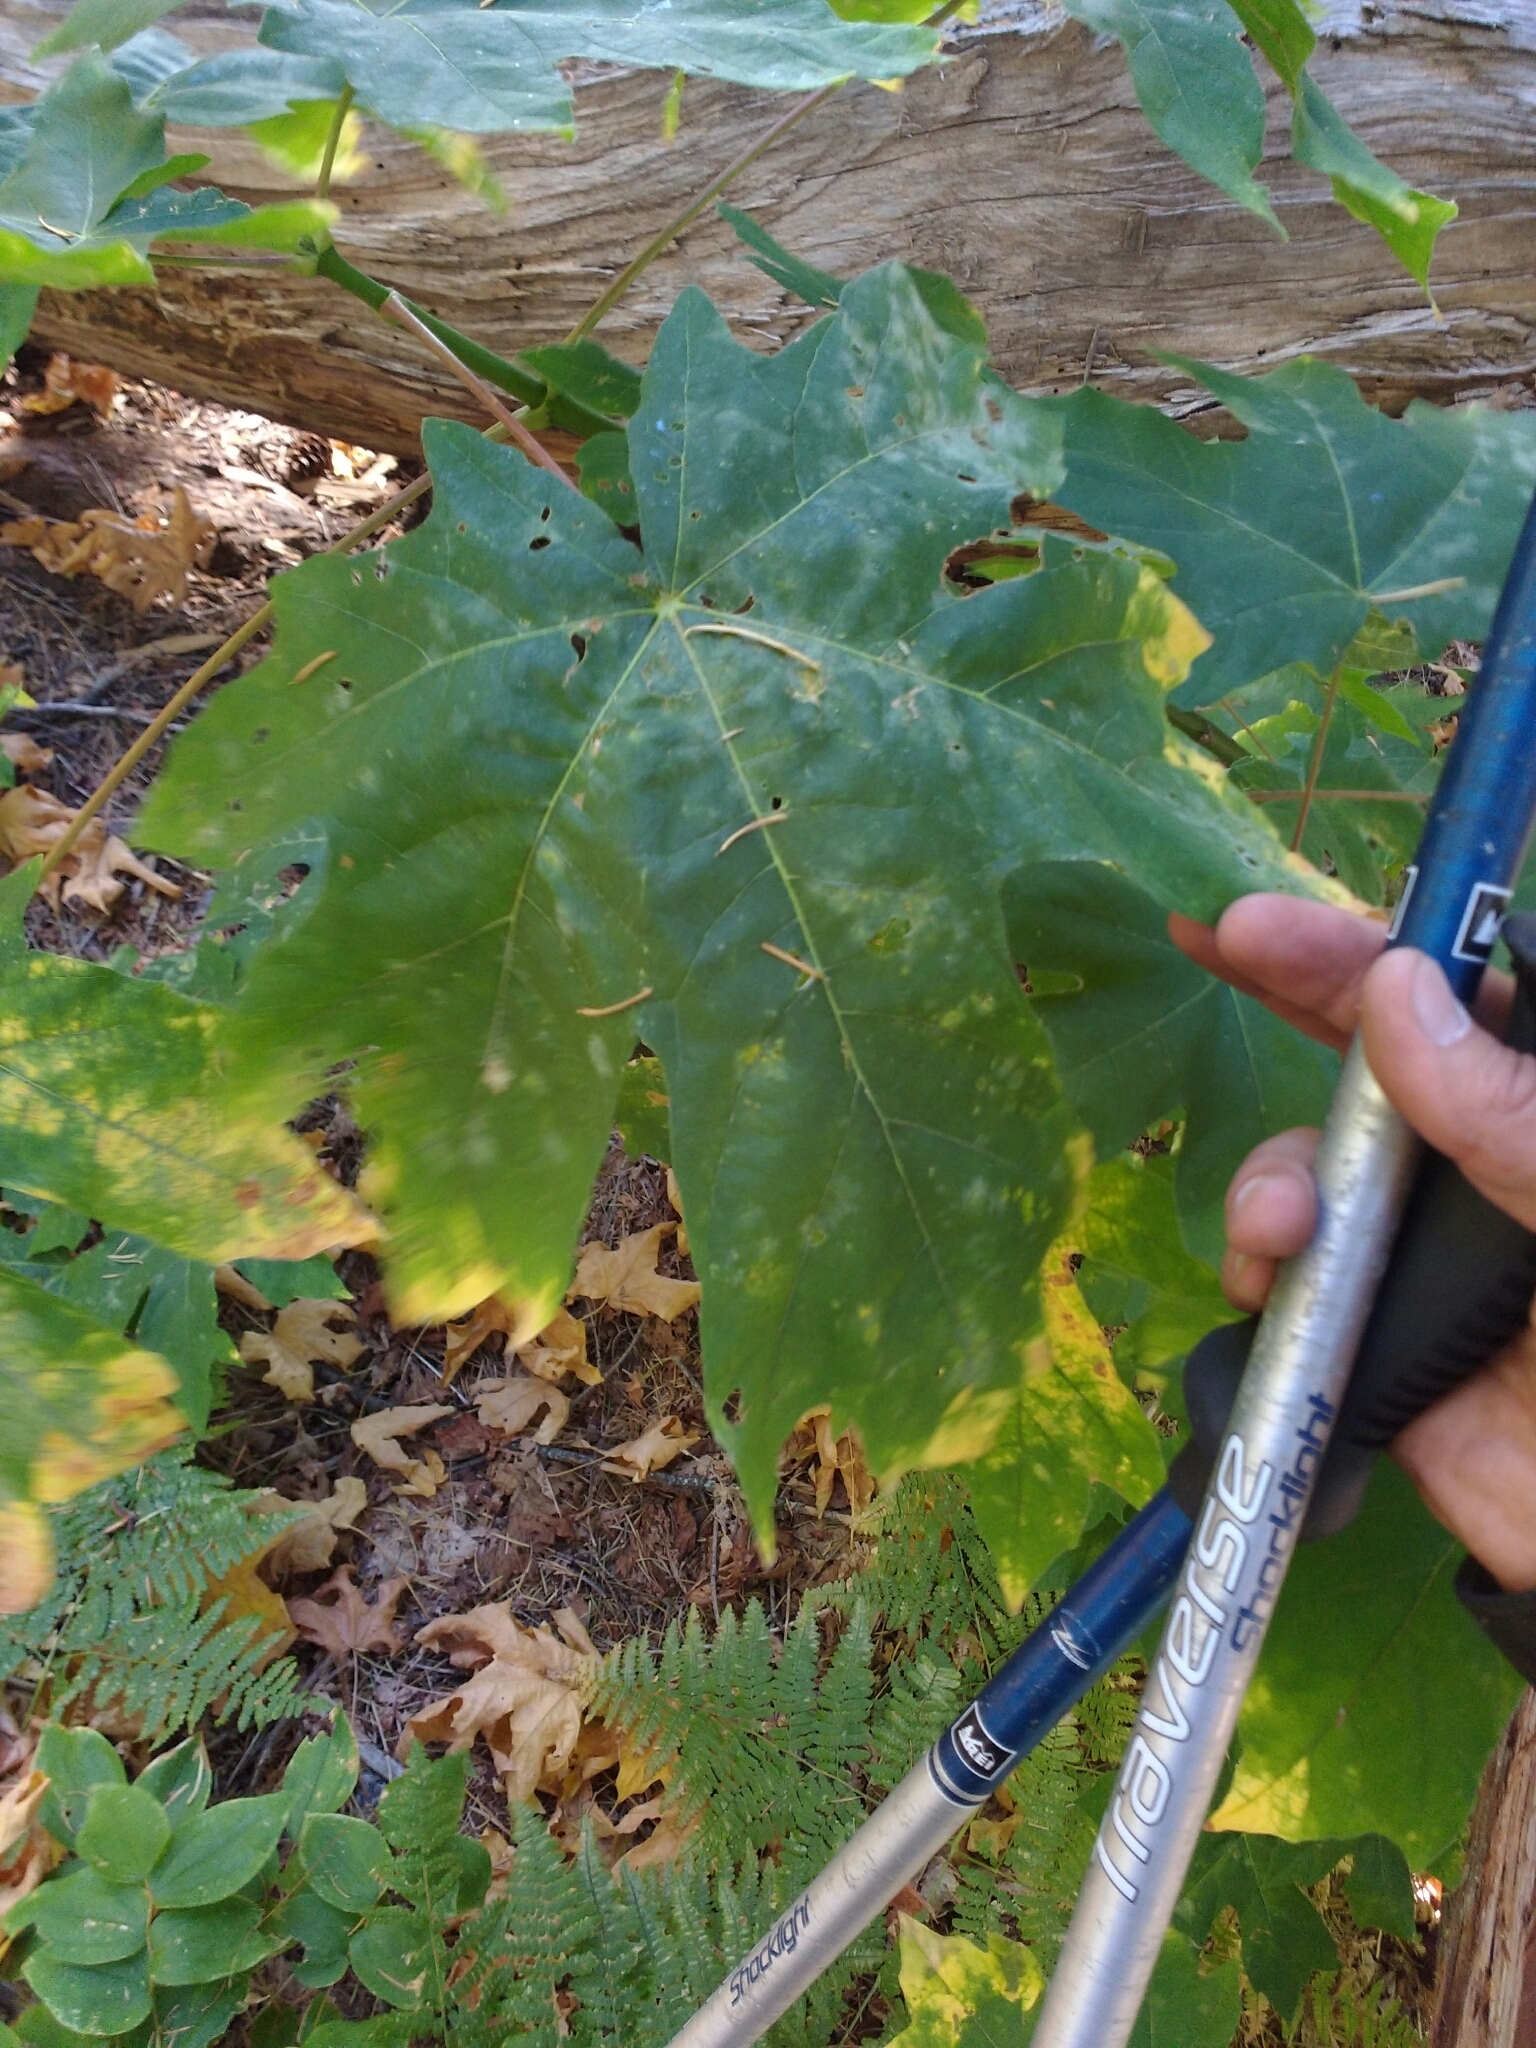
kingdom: Plantae
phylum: Tracheophyta
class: Magnoliopsida
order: Sapindales
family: Sapindaceae
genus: Acer
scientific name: Acer macrophyllum
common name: Oregon maple
